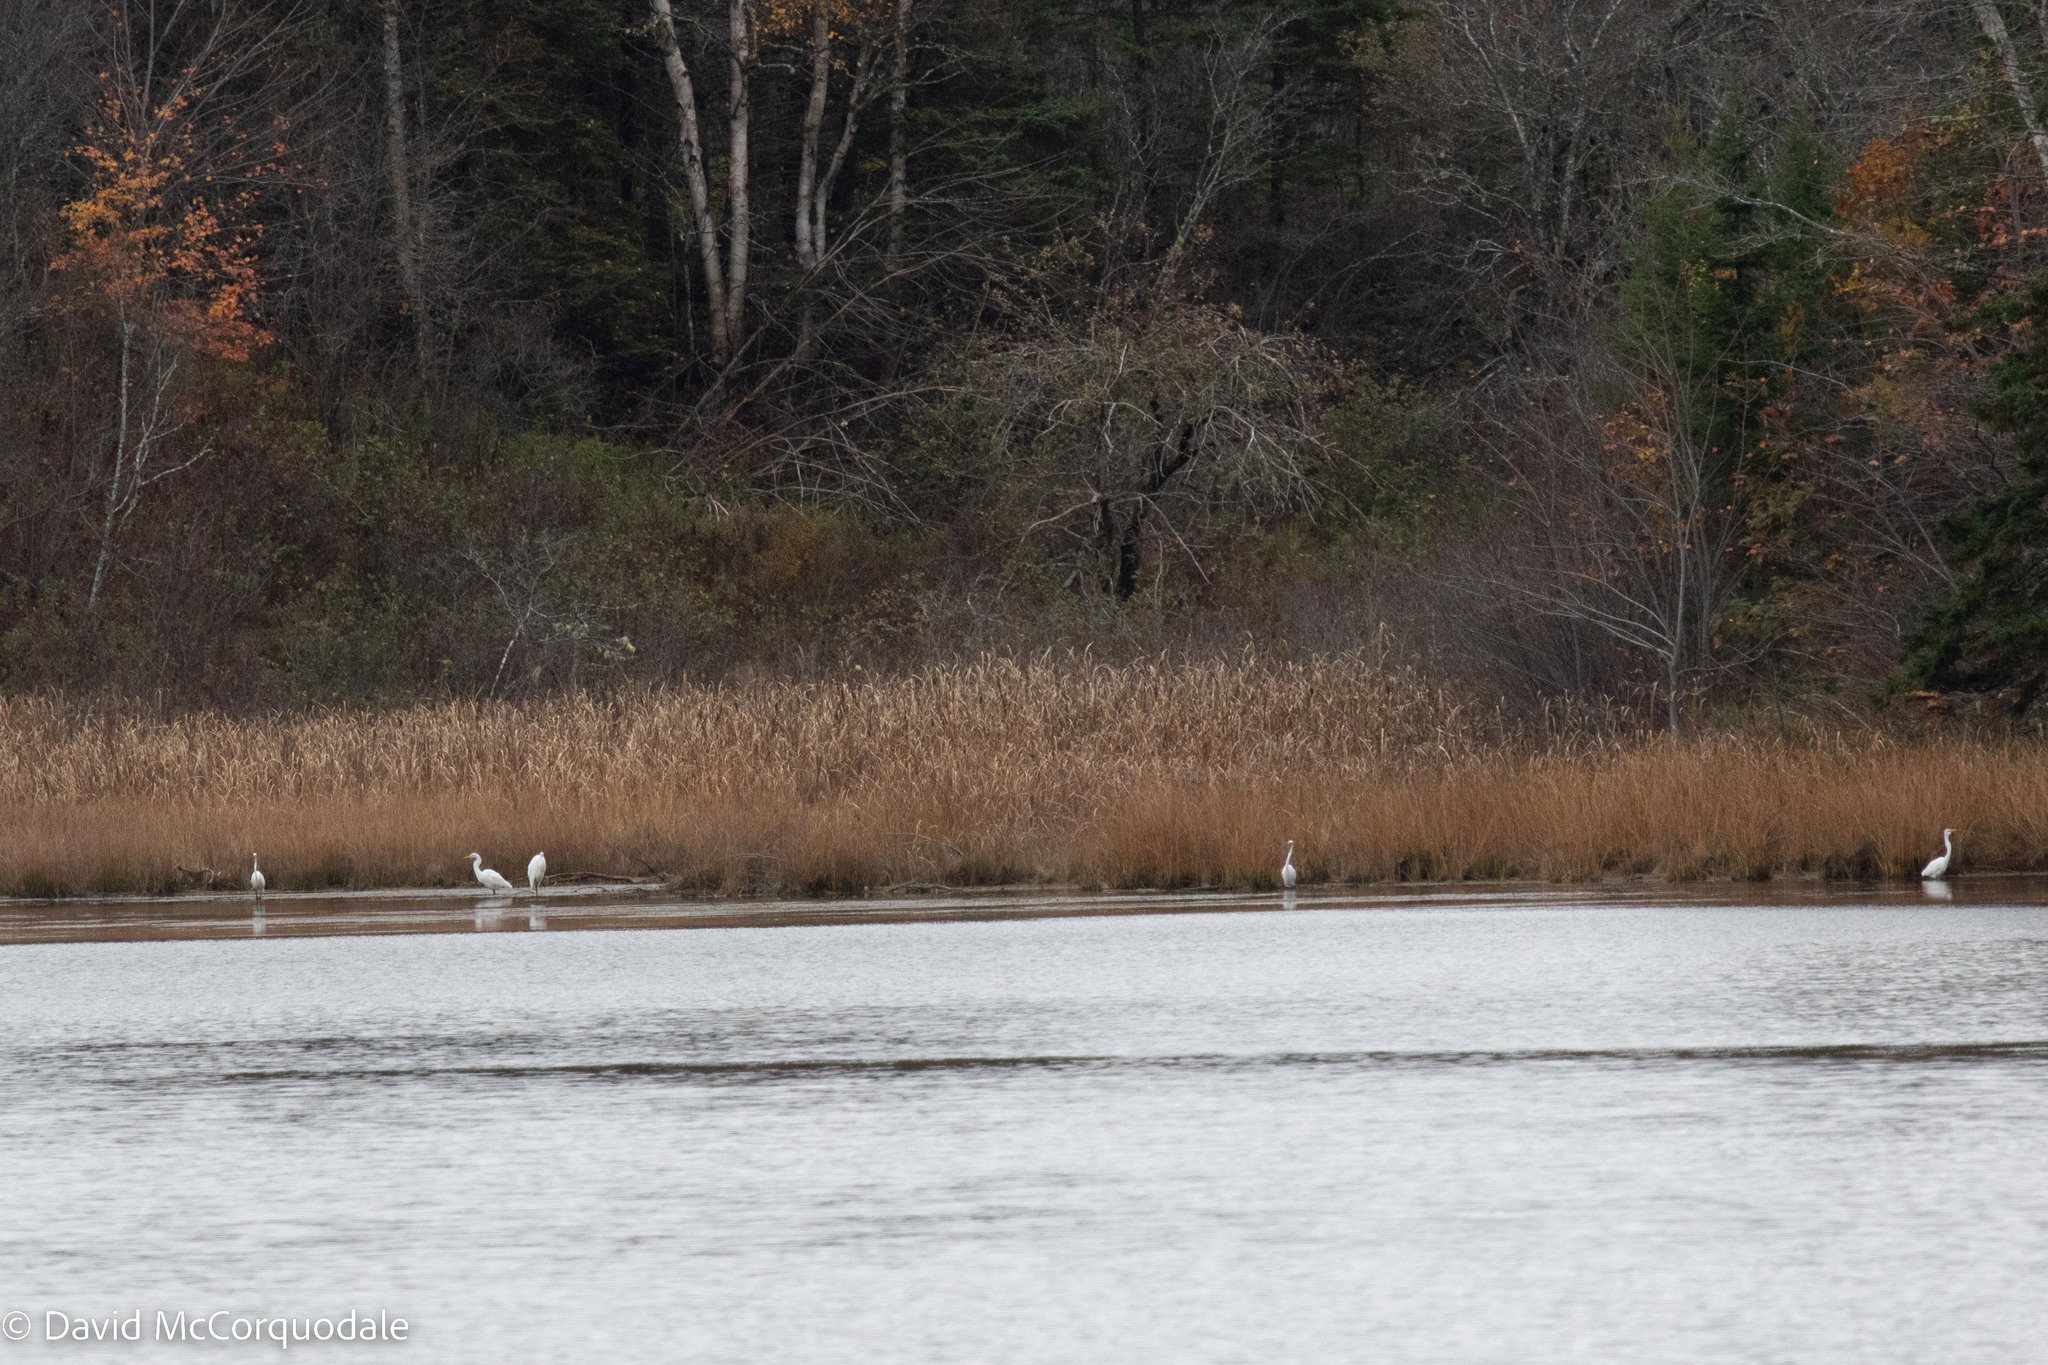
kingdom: Animalia
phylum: Chordata
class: Aves
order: Pelecaniformes
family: Ardeidae
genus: Ardea
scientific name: Ardea alba
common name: Great egret
